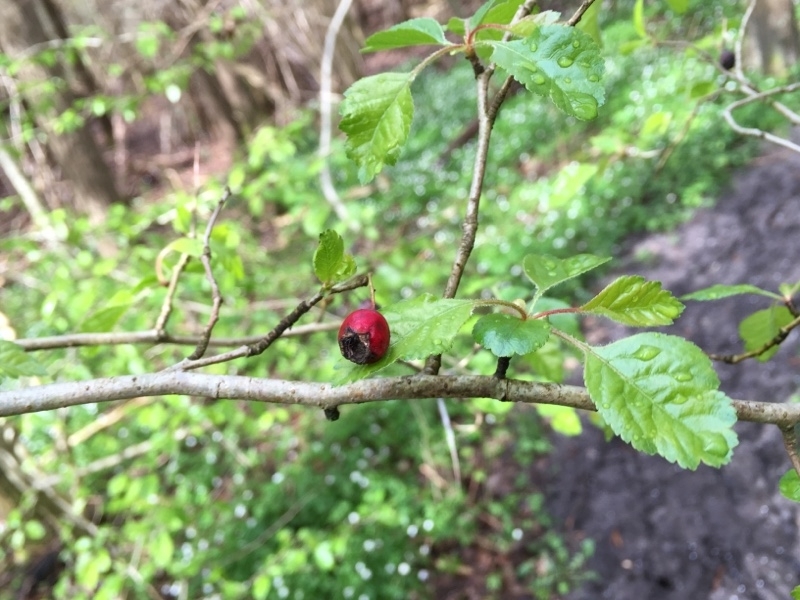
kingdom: Plantae
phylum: Tracheophyta
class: Magnoliopsida
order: Rosales
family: Rosaceae
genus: Crataegus
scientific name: Crataegus laevigata
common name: Midland hawthorn
